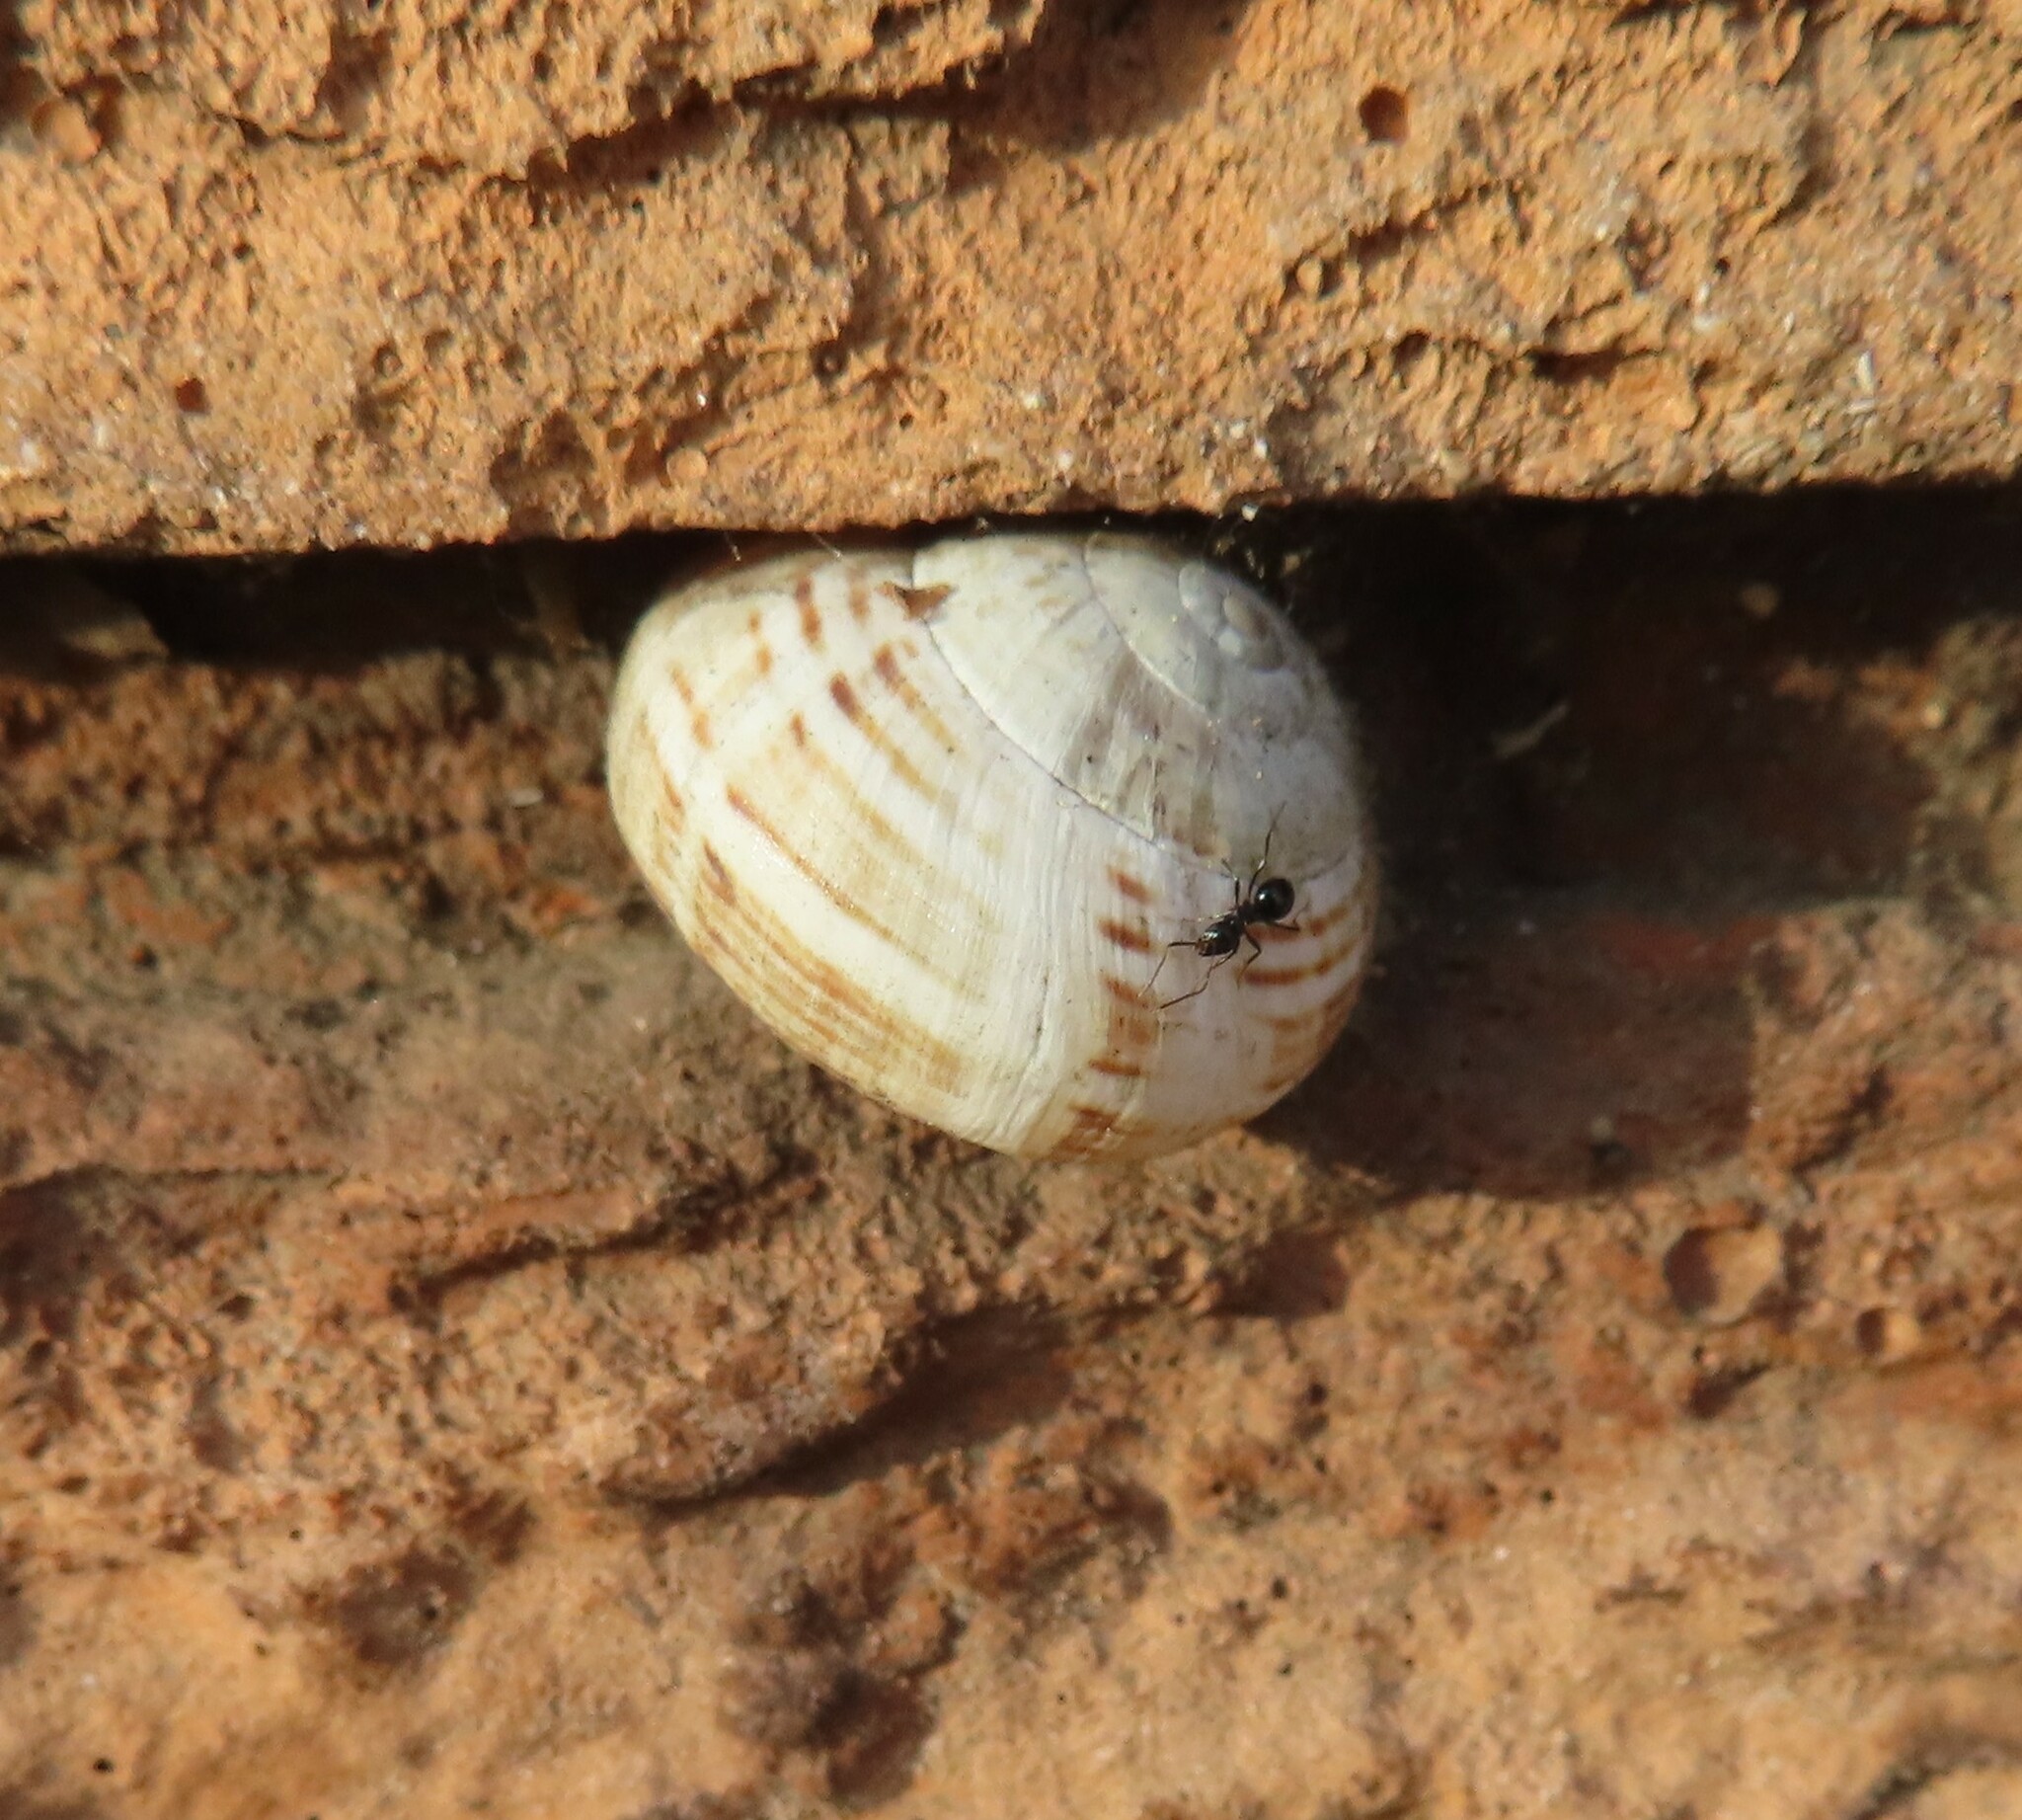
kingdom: Animalia
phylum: Mollusca
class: Gastropoda
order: Stylommatophora
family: Helicidae
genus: Theba
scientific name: Theba pisana
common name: White snail
